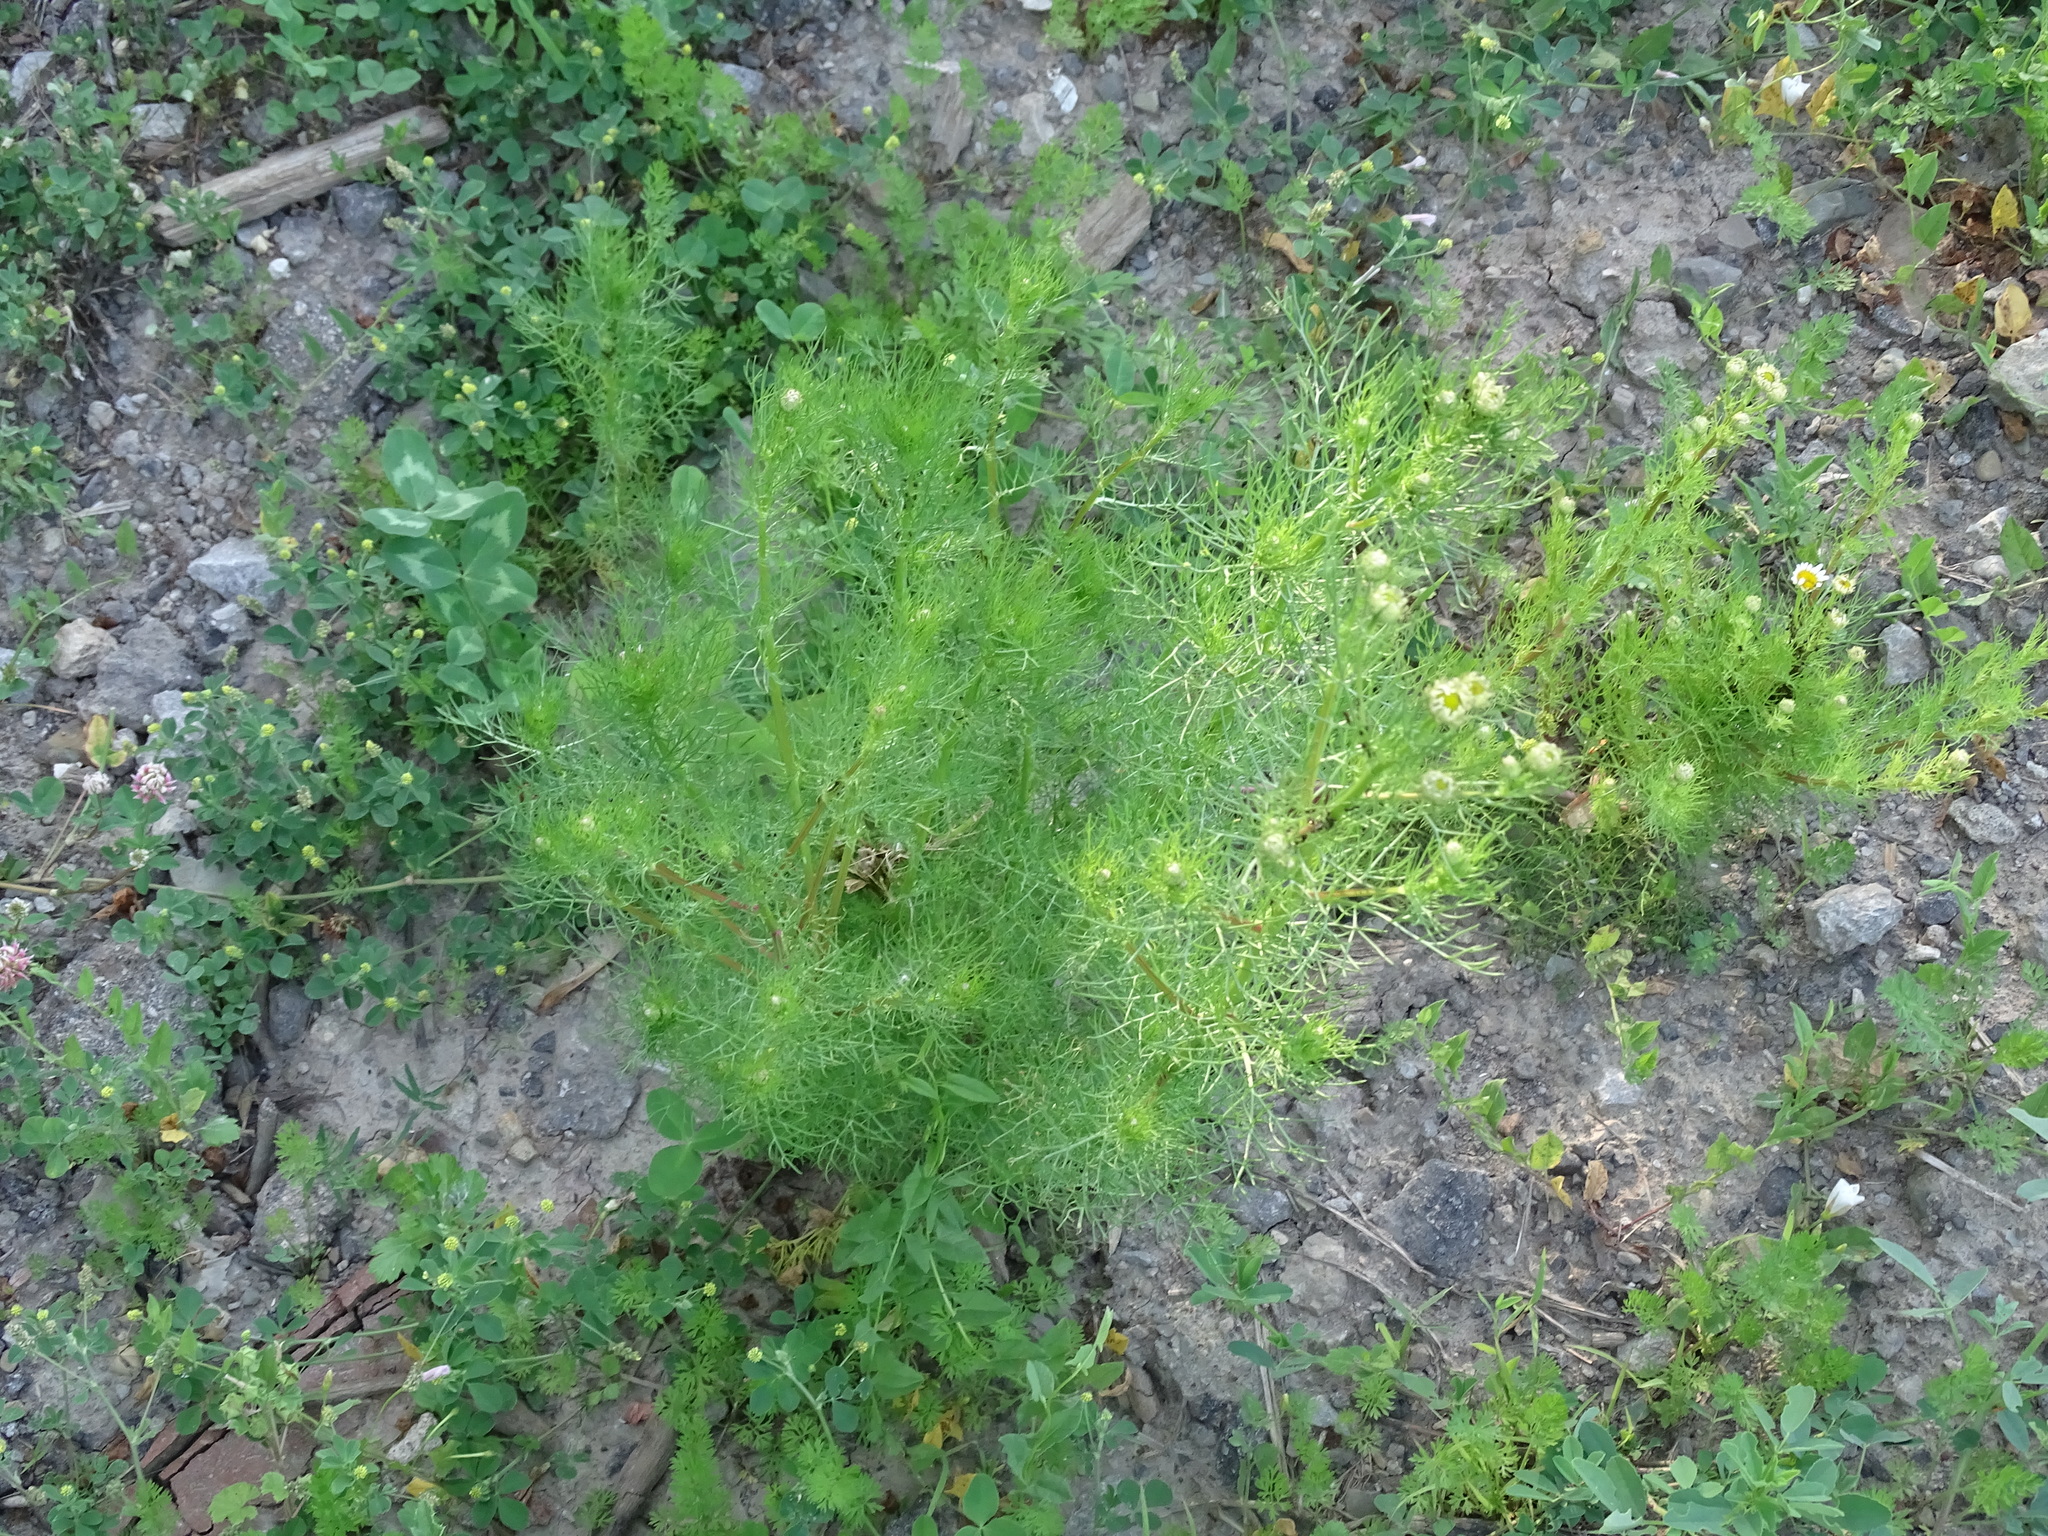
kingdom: Plantae
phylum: Tracheophyta
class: Magnoliopsida
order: Asterales
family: Asteraceae
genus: Tripleurospermum
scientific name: Tripleurospermum inodorum
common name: Scentless mayweed
